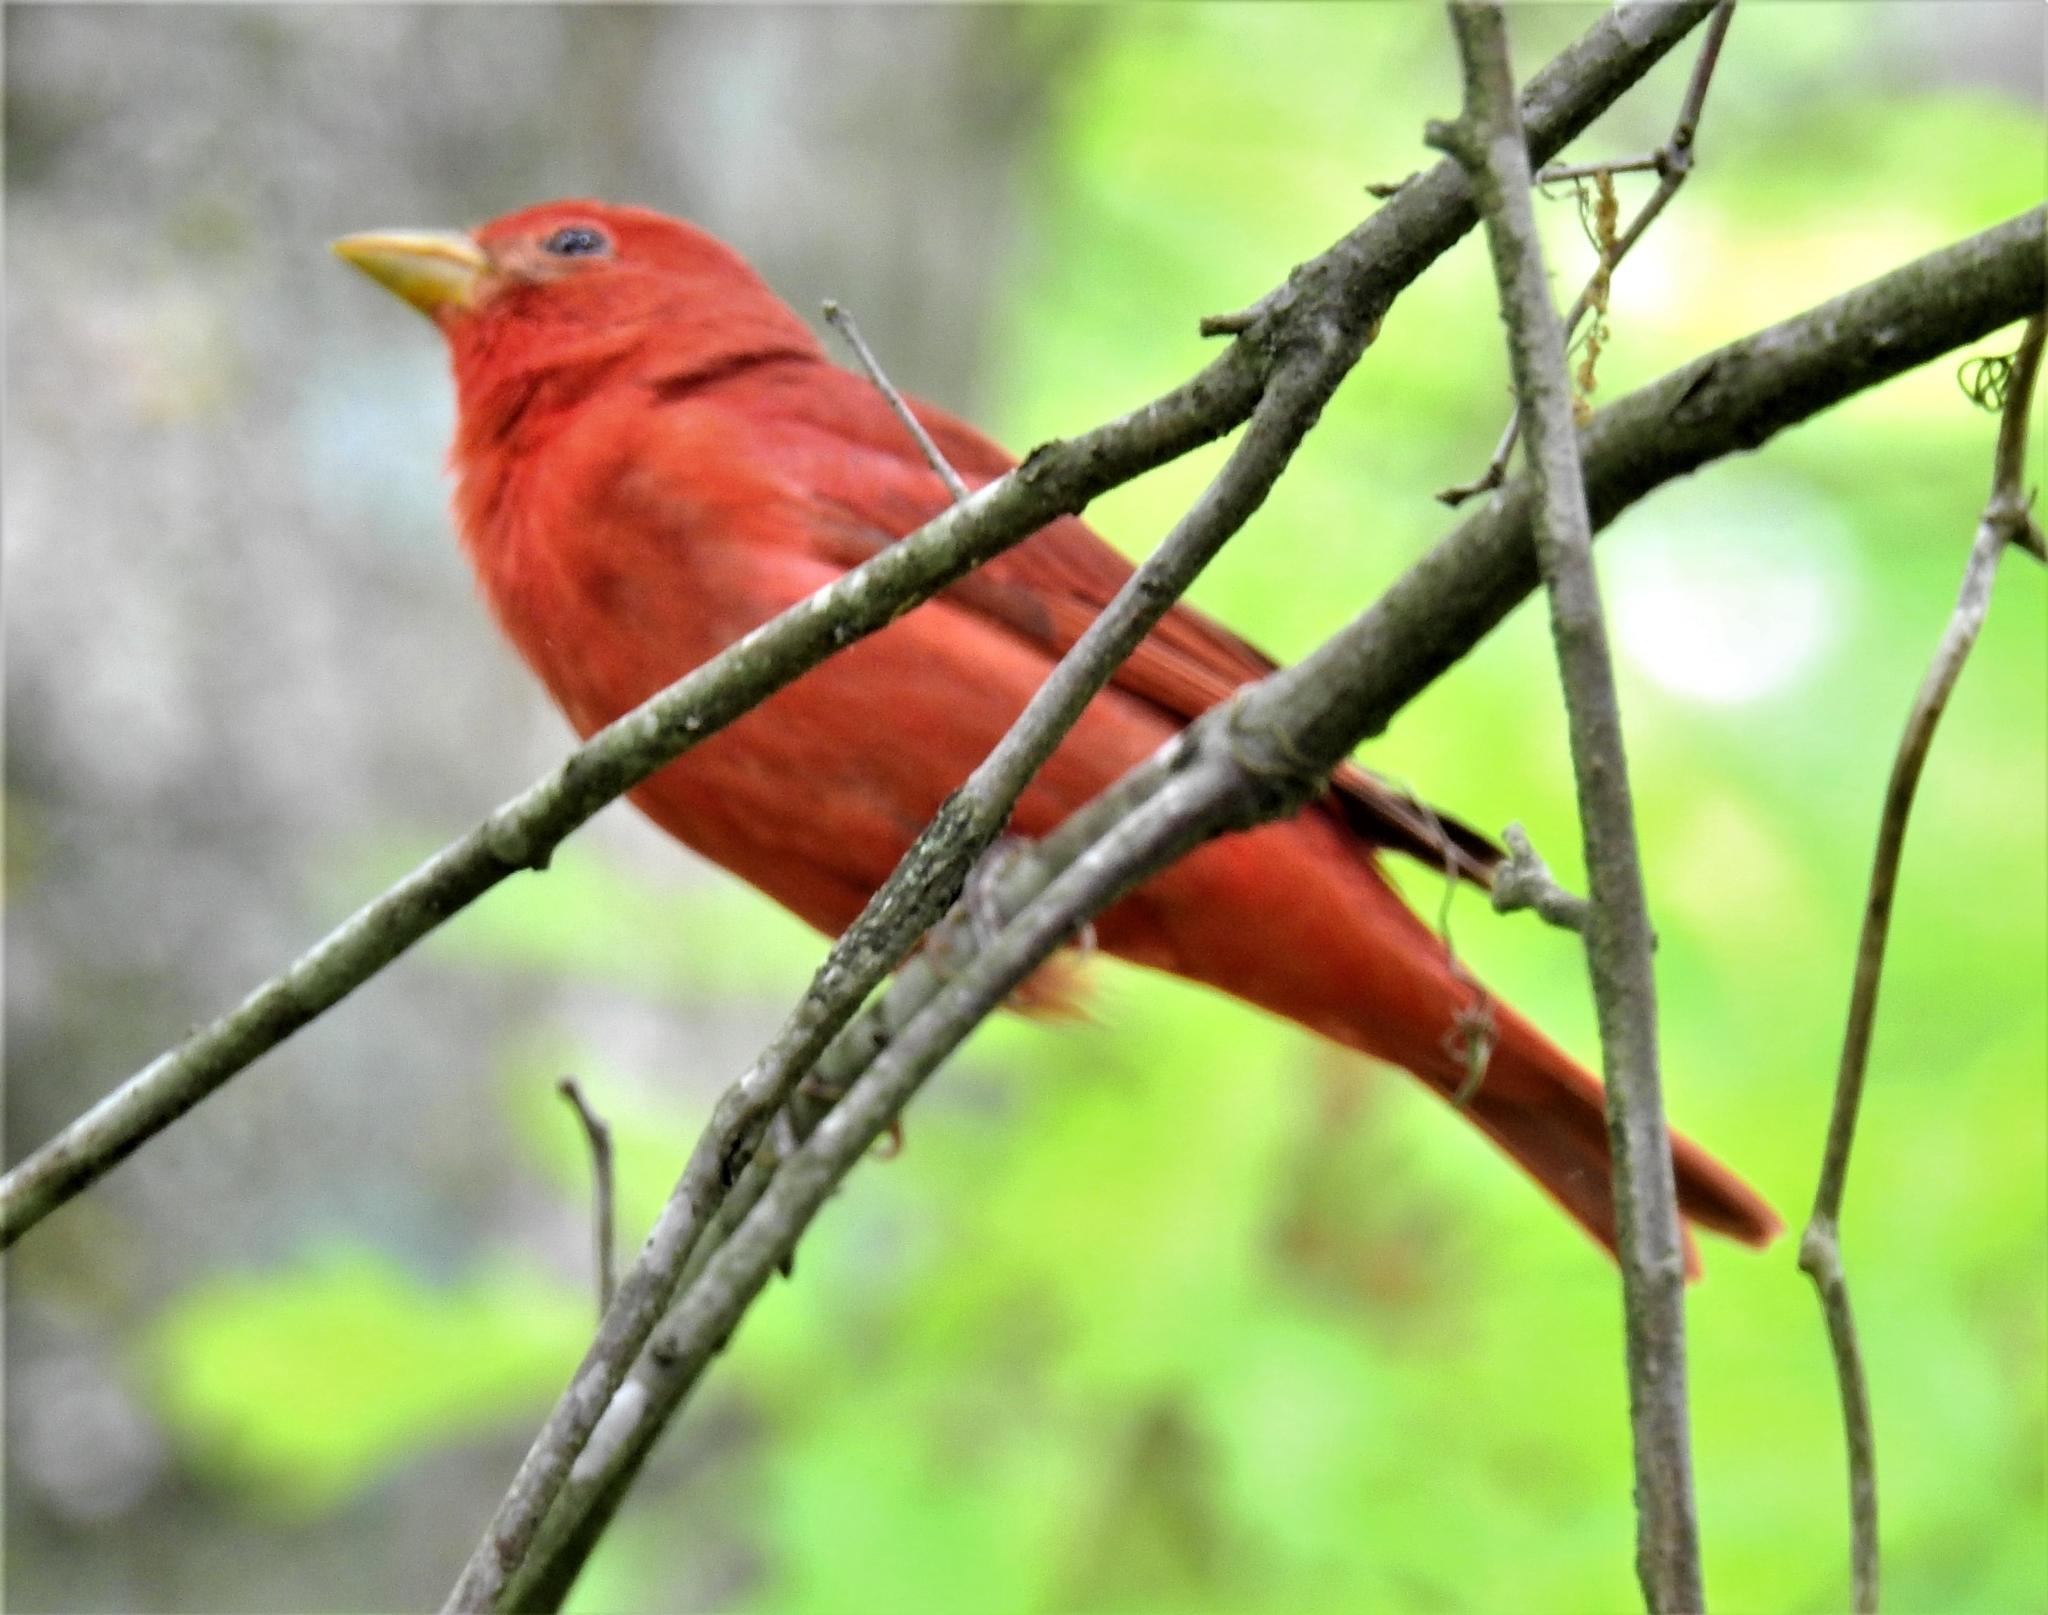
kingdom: Animalia
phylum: Chordata
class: Aves
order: Passeriformes
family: Cardinalidae
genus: Piranga
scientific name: Piranga rubra
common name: Summer tanager
